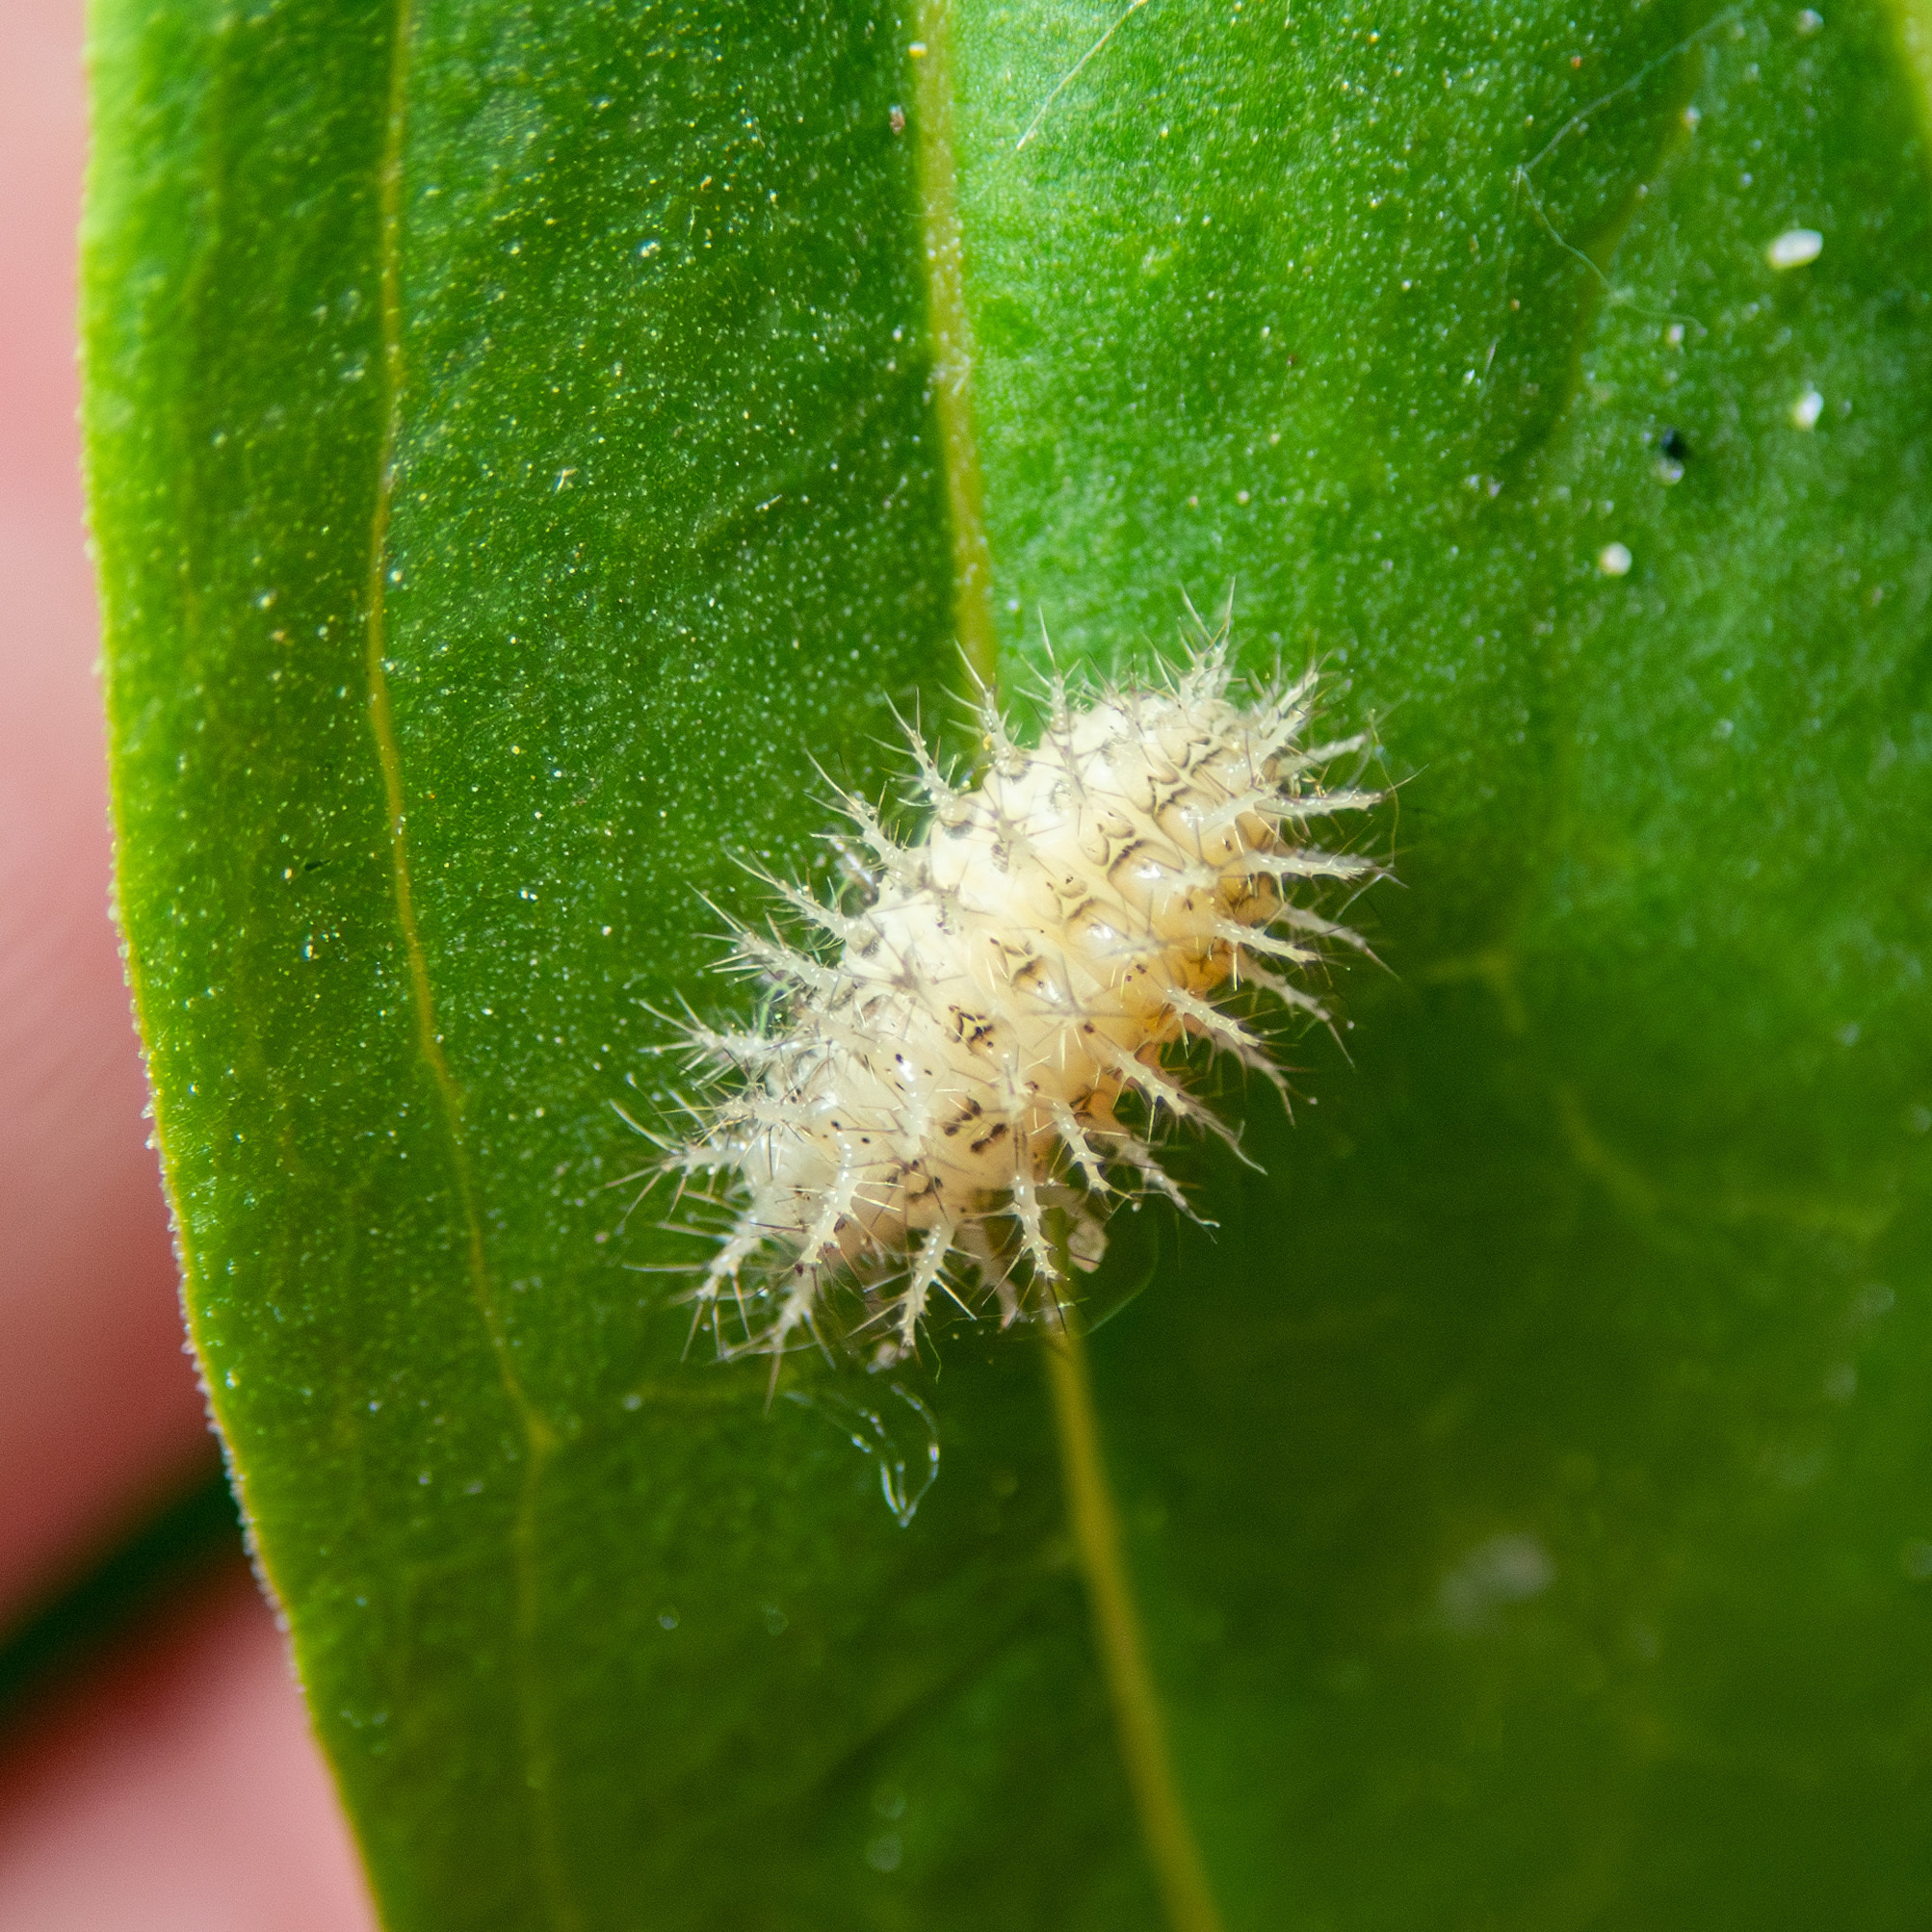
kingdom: Animalia
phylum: Arthropoda
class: Insecta
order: Coleoptera
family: Coccinellidae
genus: Subcoccinella
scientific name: Subcoccinella vigintiquatuorpunctata
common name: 24-spot ladybird
